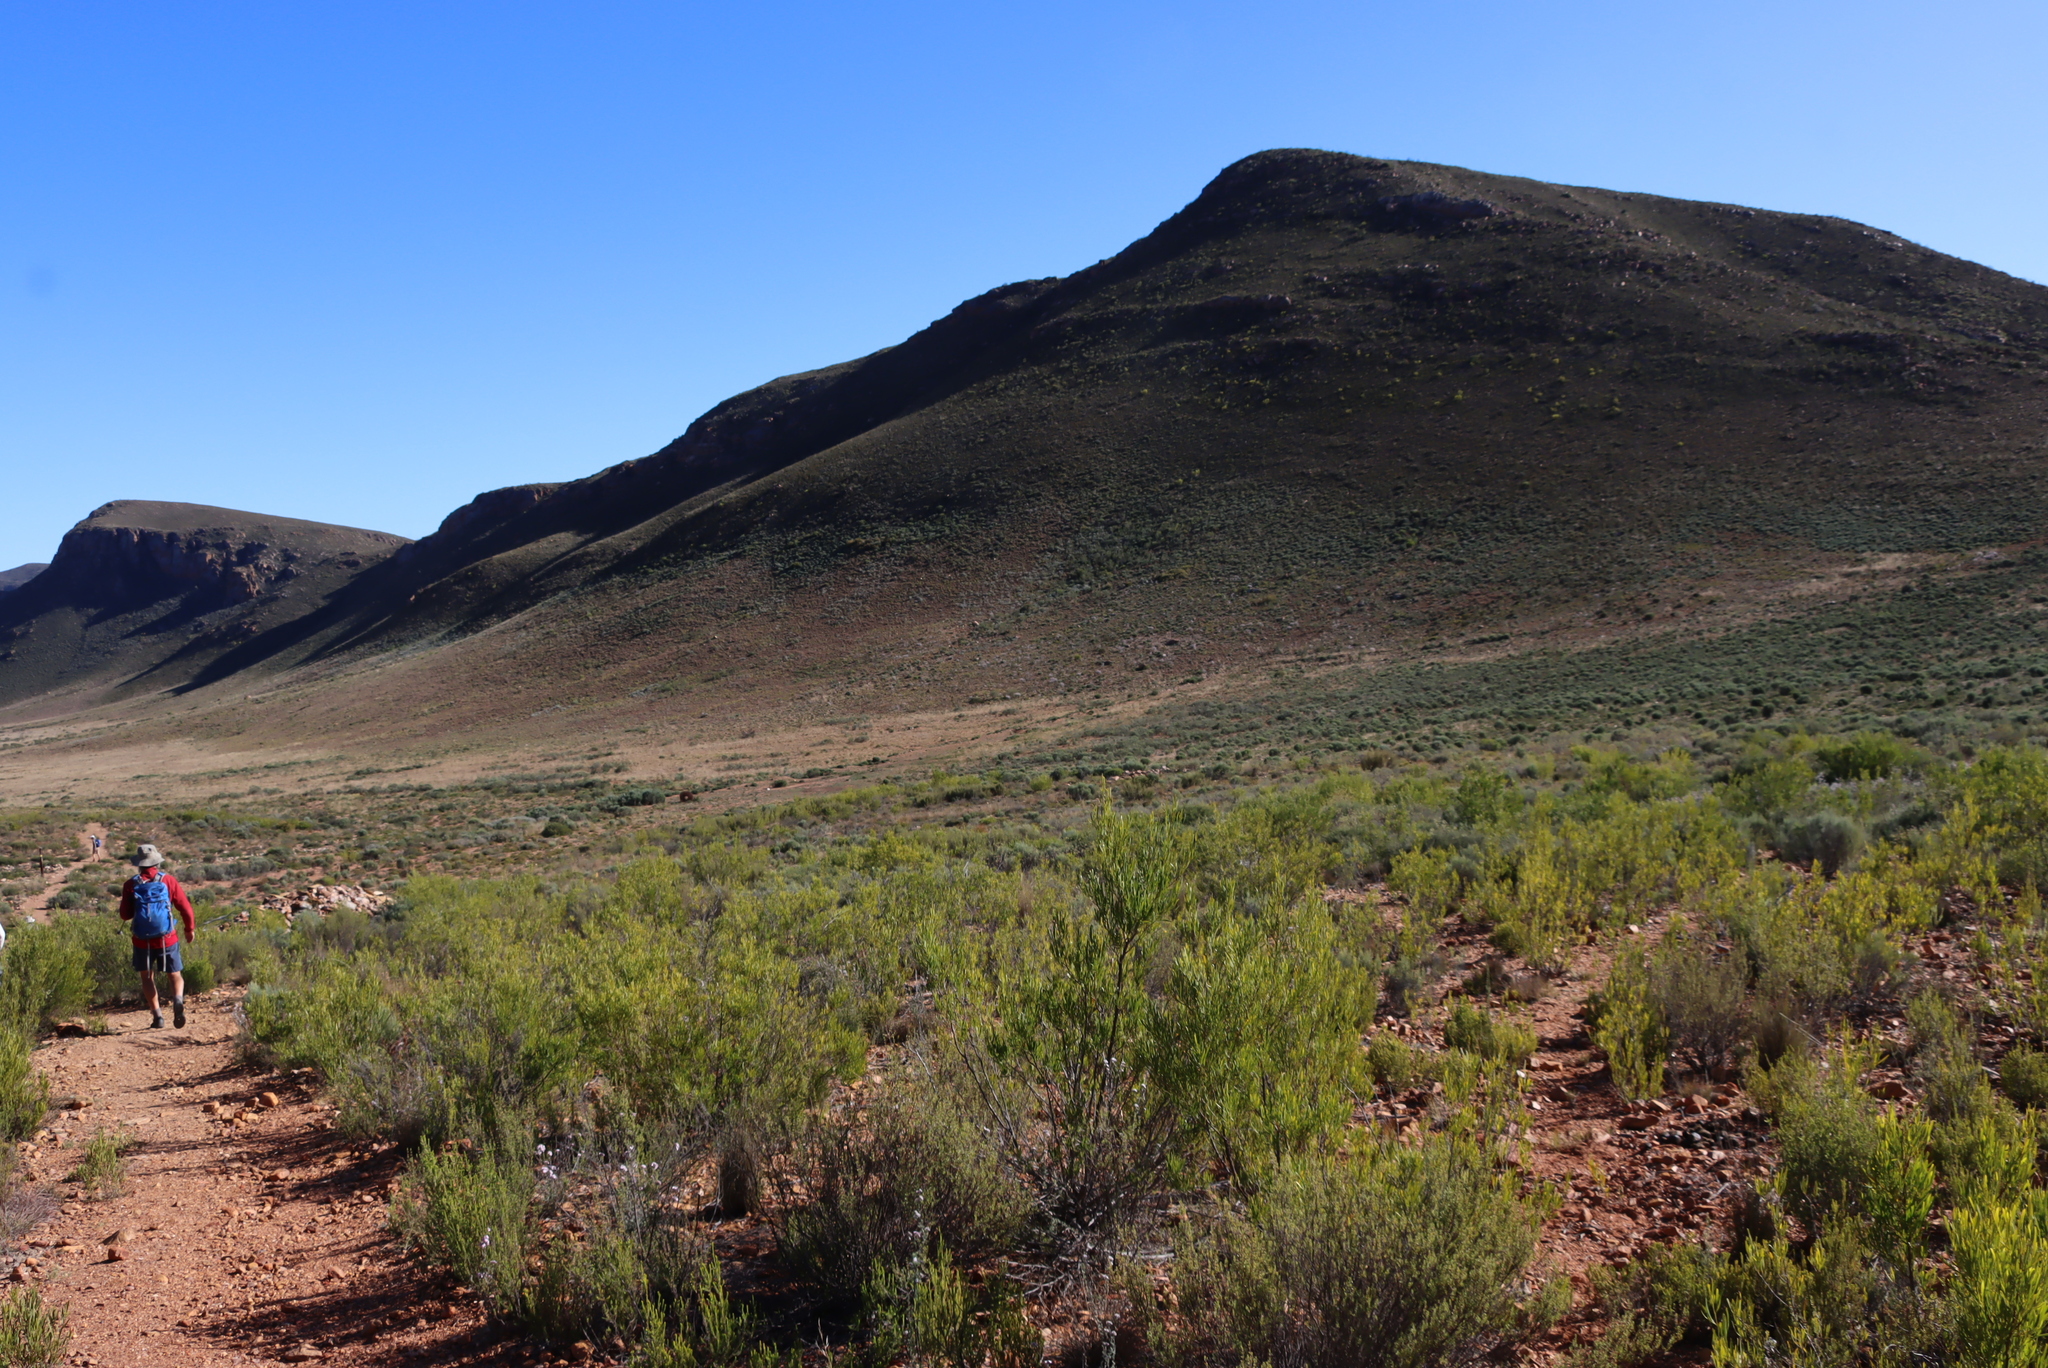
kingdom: Plantae
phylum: Tracheophyta
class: Magnoliopsida
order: Proteales
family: Proteaceae
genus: Leucadendron
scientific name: Leucadendron salignum
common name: Common sunshine conebush
